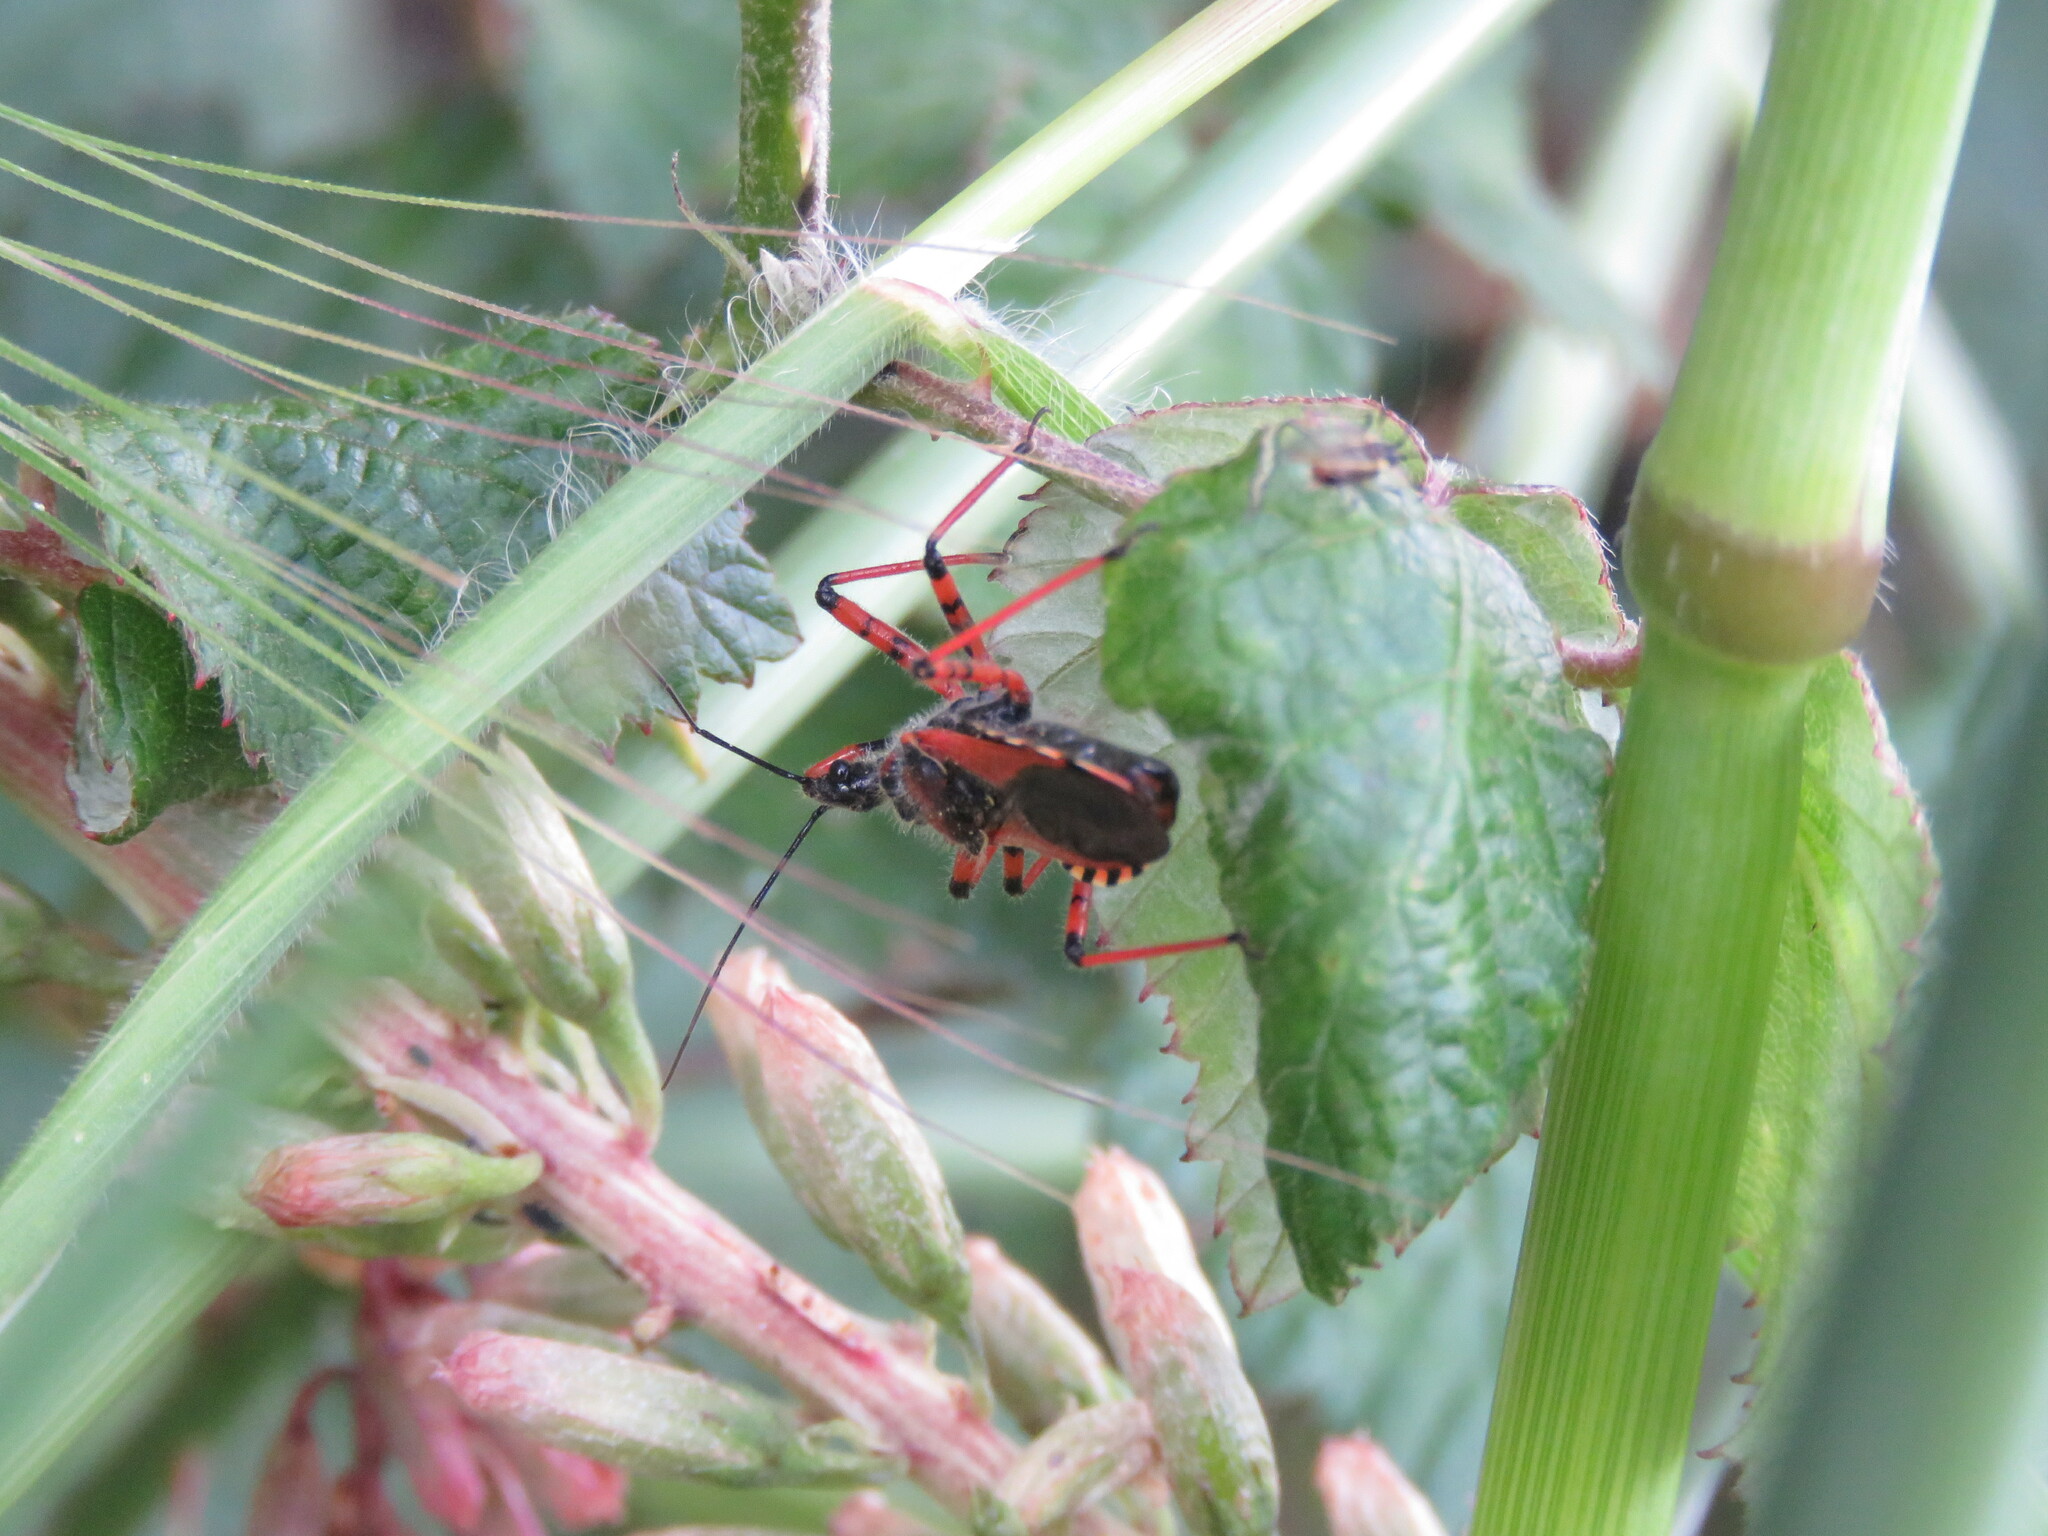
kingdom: Animalia
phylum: Arthropoda
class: Insecta
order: Hemiptera
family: Reduviidae
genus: Rhynocoris
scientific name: Rhynocoris iracundus
